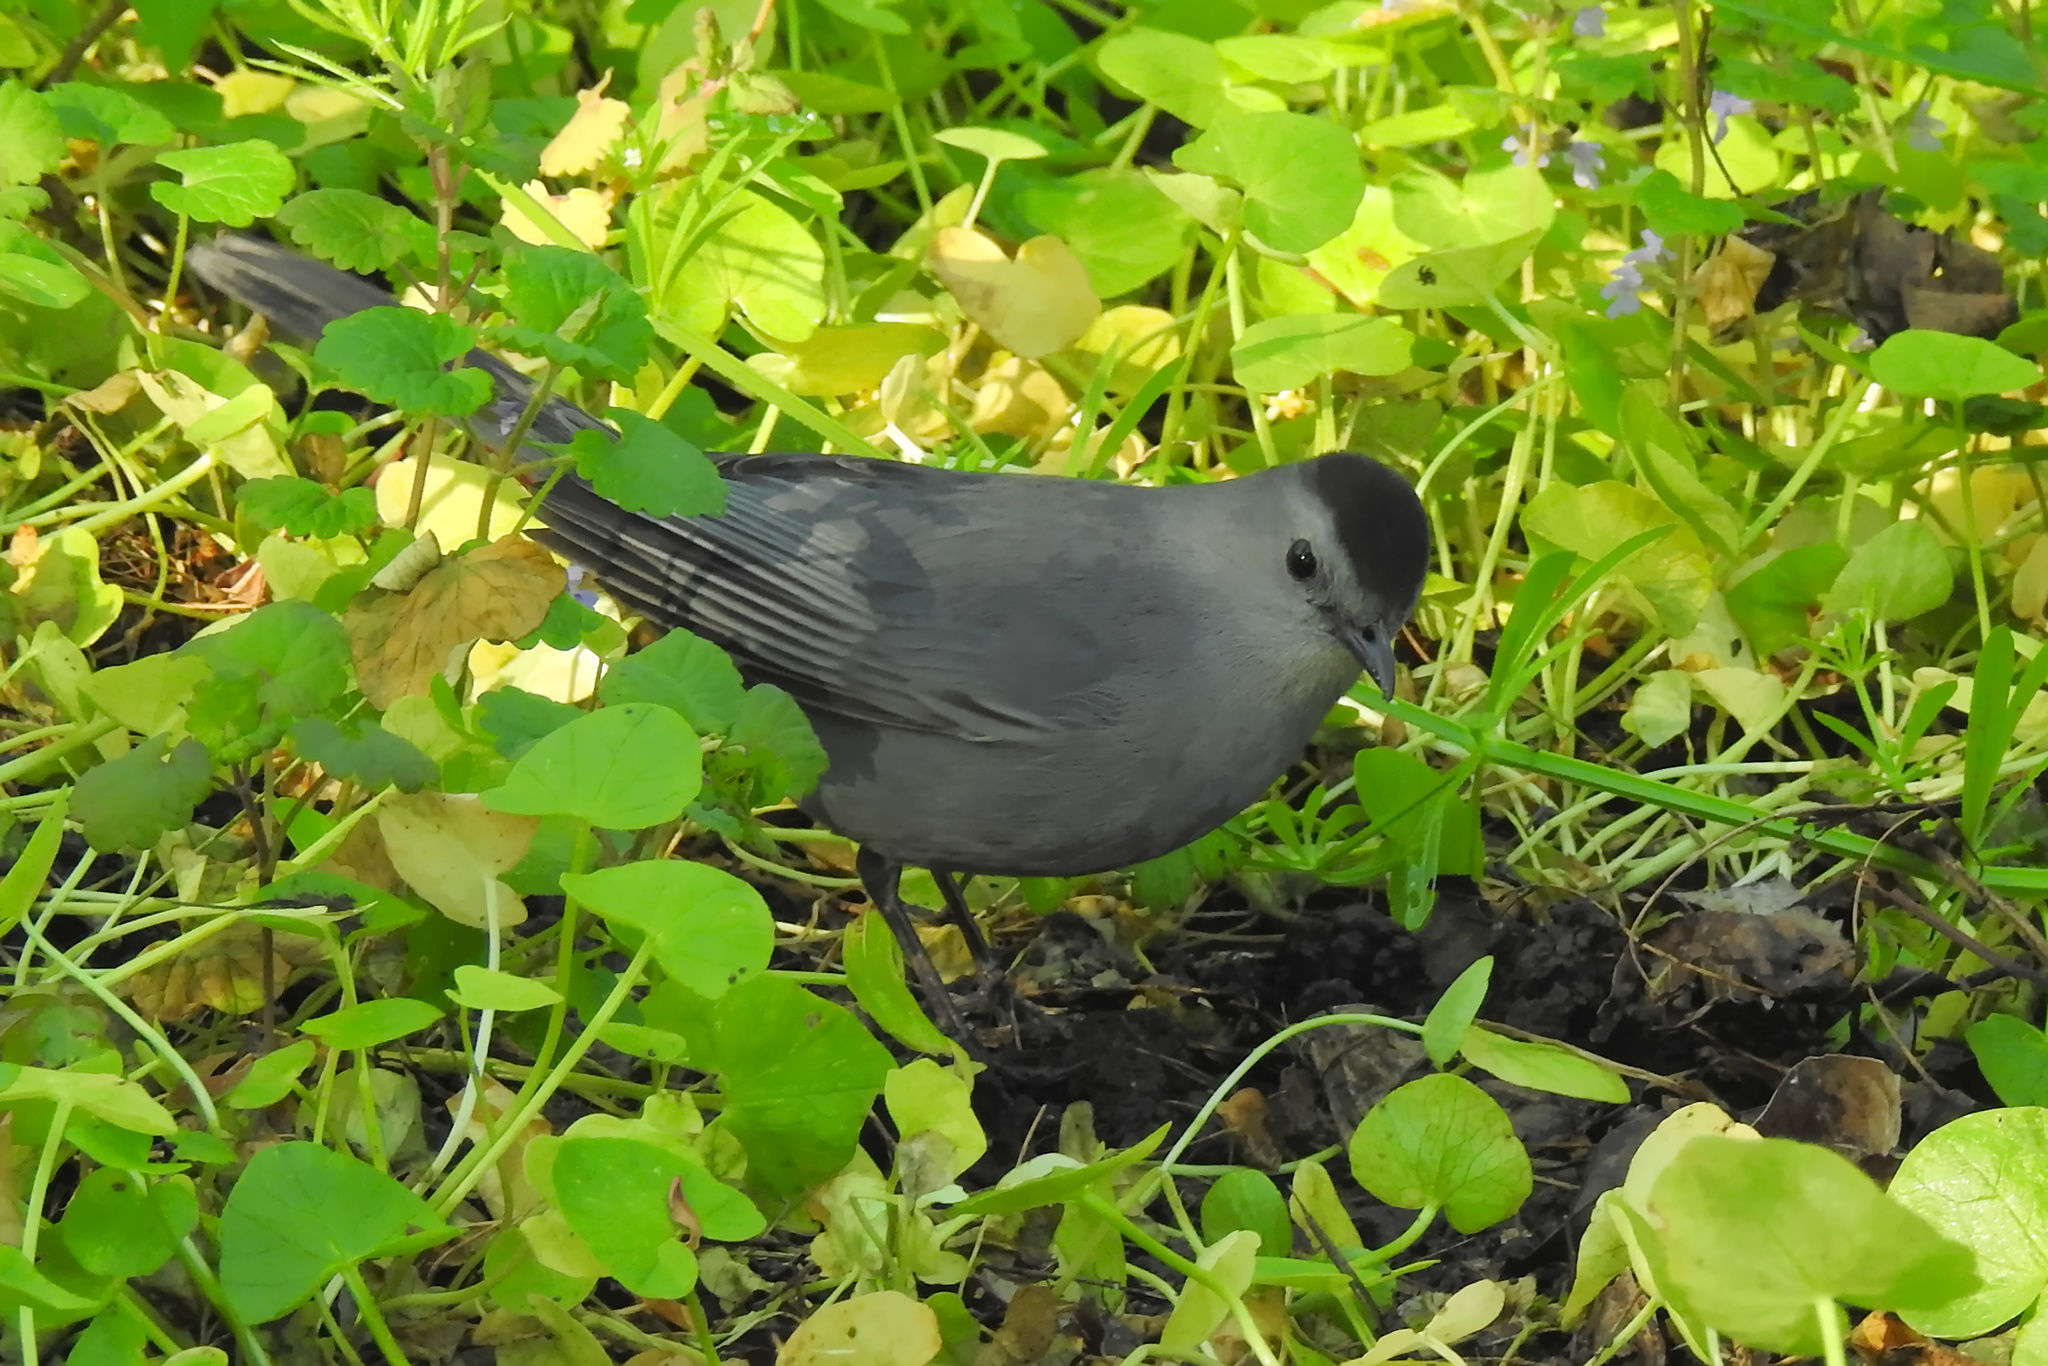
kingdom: Animalia
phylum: Chordata
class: Aves
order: Passeriformes
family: Mimidae
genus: Dumetella
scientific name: Dumetella carolinensis
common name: Gray catbird
